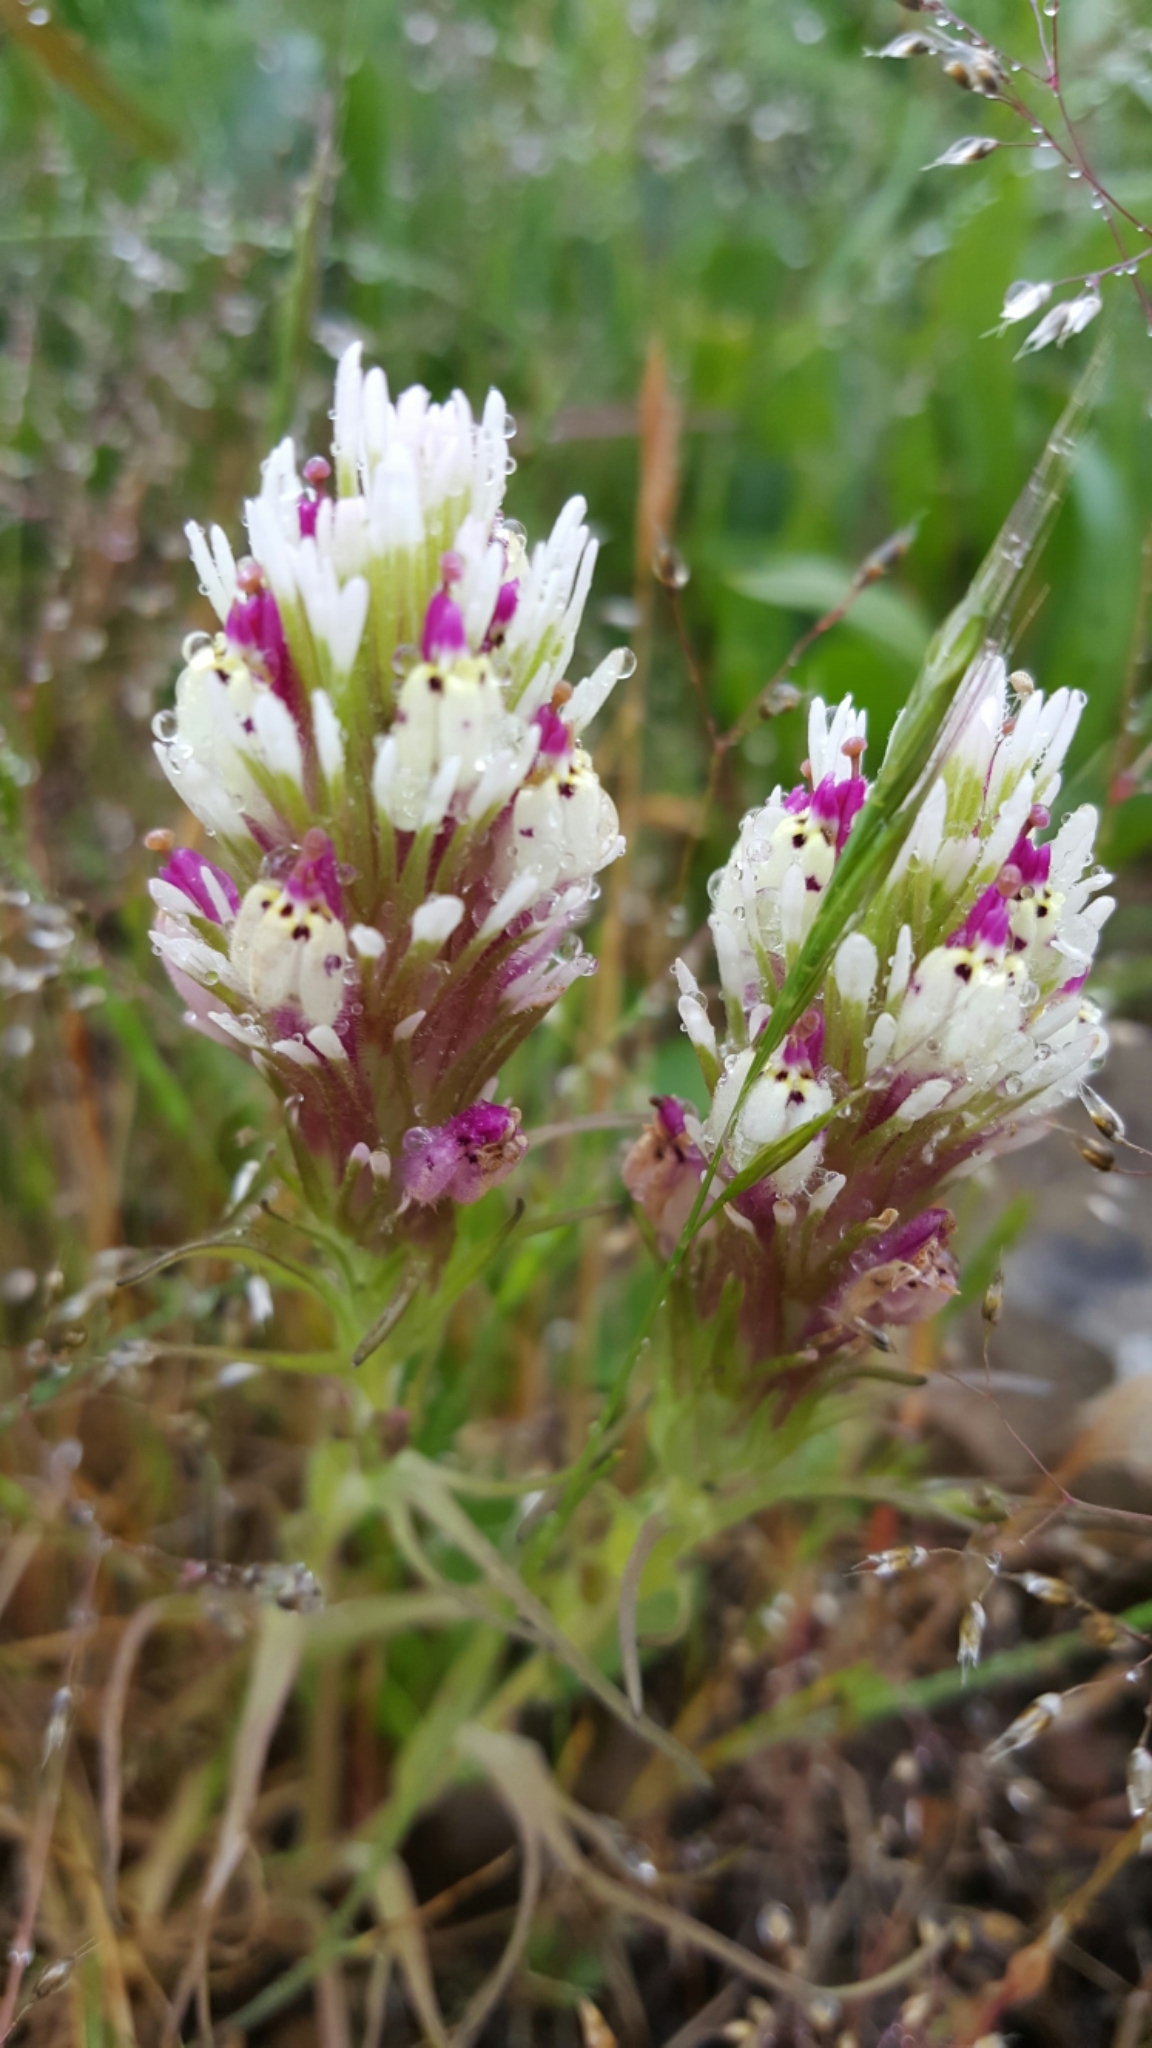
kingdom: Plantae
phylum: Tracheophyta
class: Magnoliopsida
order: Lamiales
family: Orobanchaceae
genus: Castilleja
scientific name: Castilleja densiflora
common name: Dense-flower indian paintbrush
